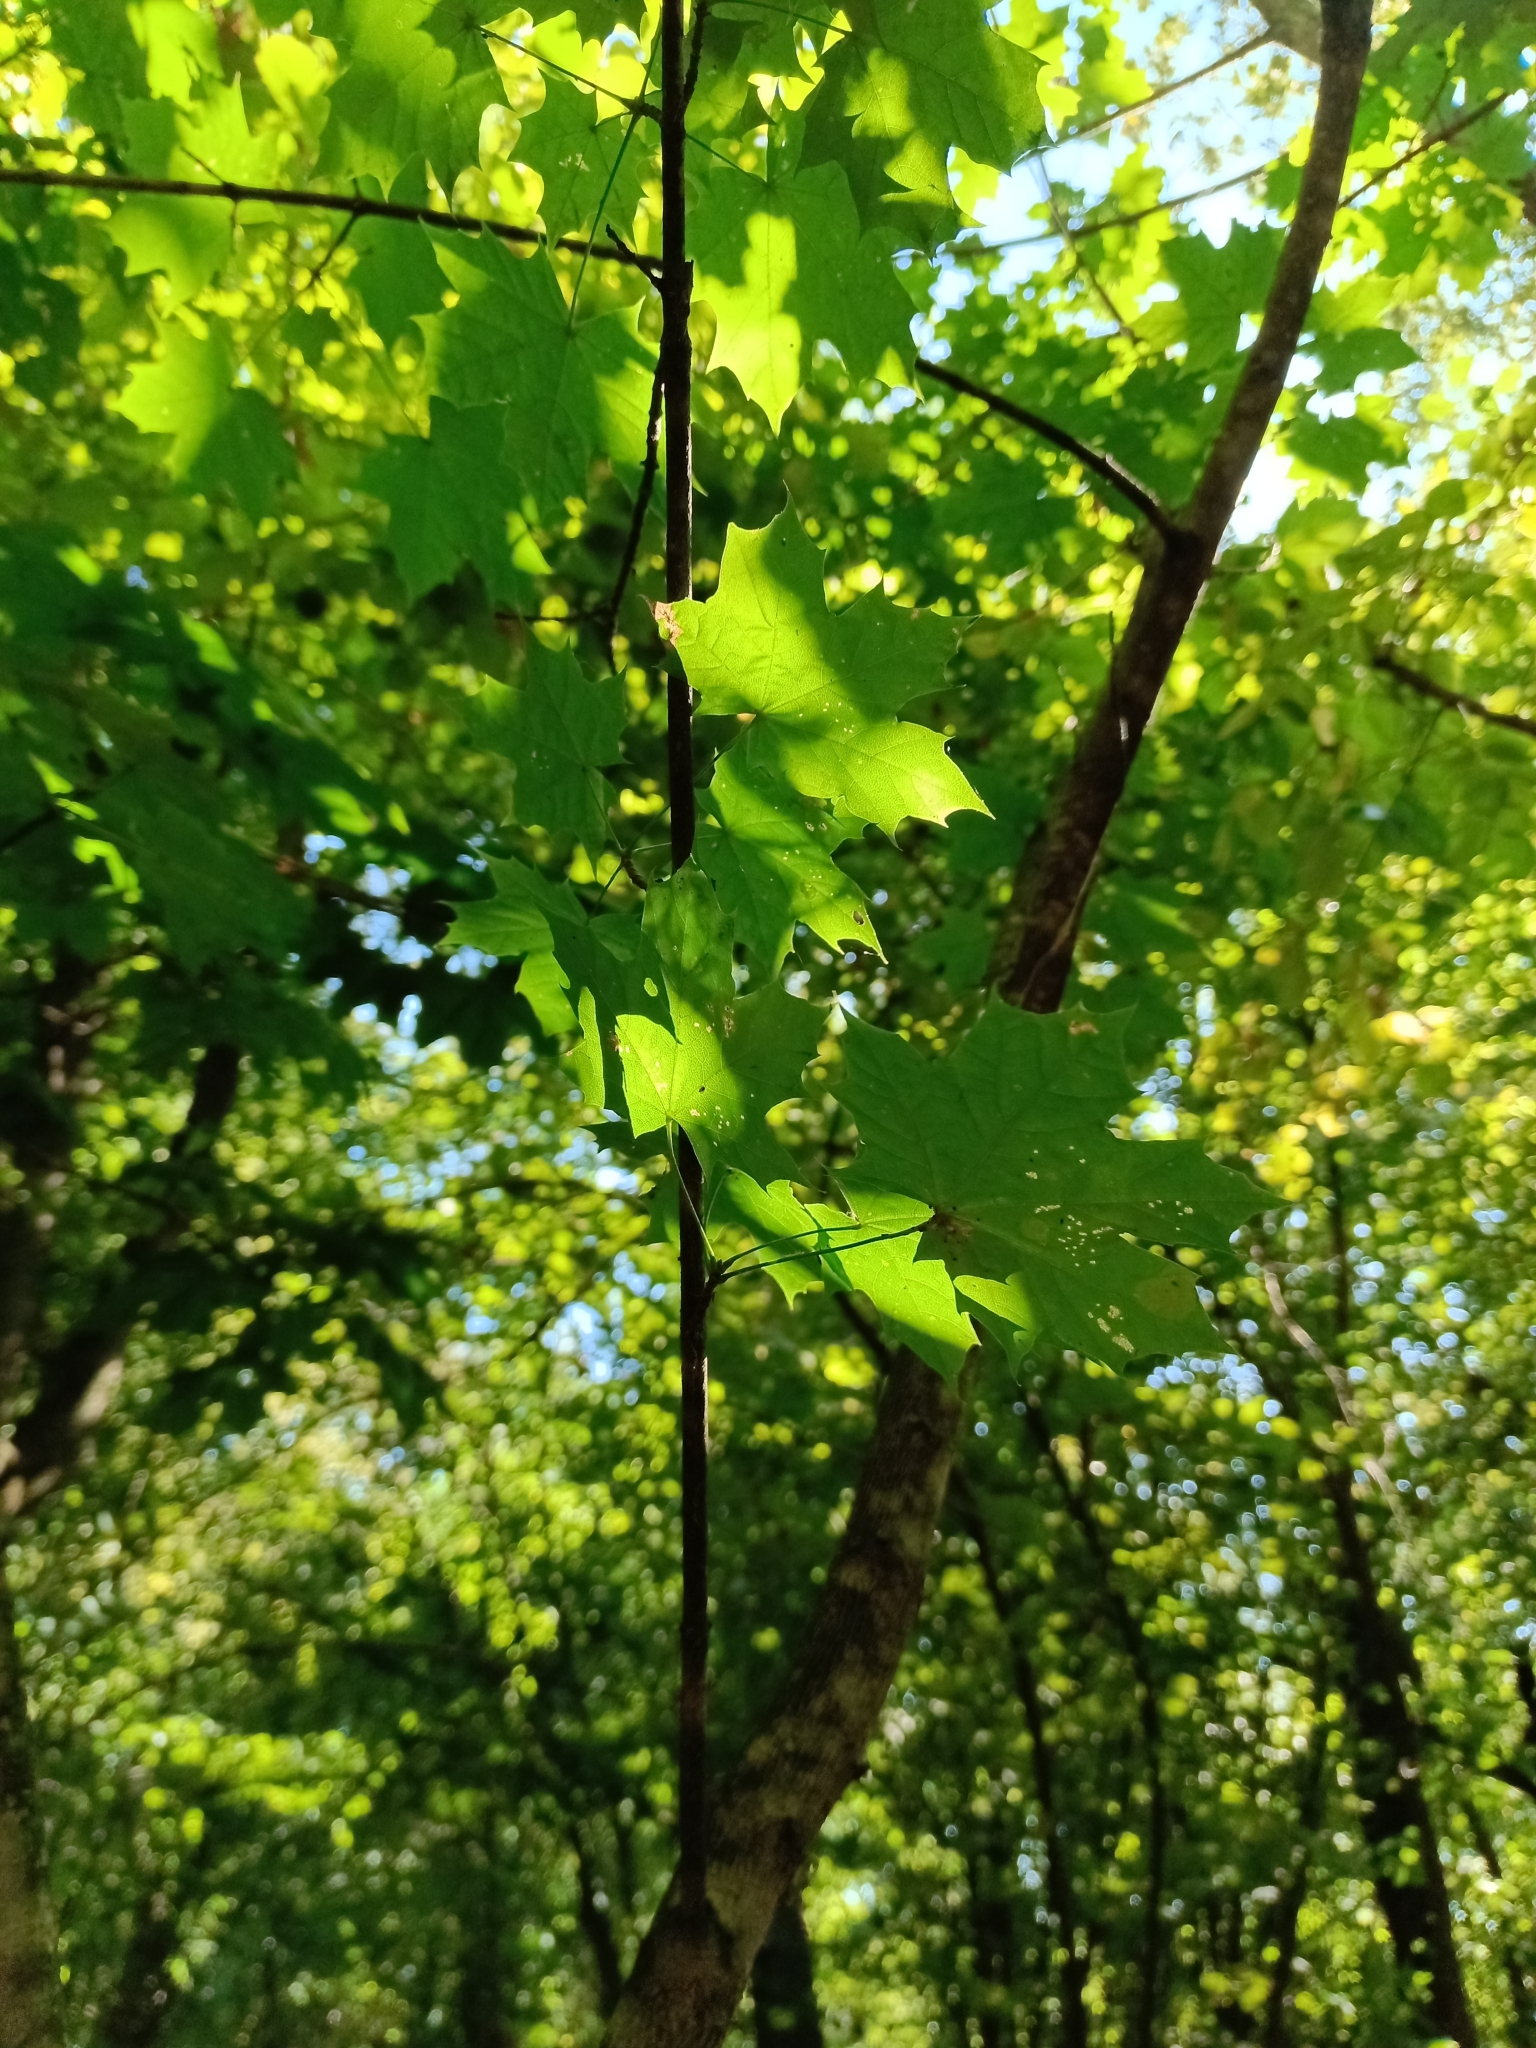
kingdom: Plantae
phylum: Tracheophyta
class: Magnoliopsida
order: Sapindales
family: Sapindaceae
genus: Acer
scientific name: Acer platanoides
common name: Norway maple
